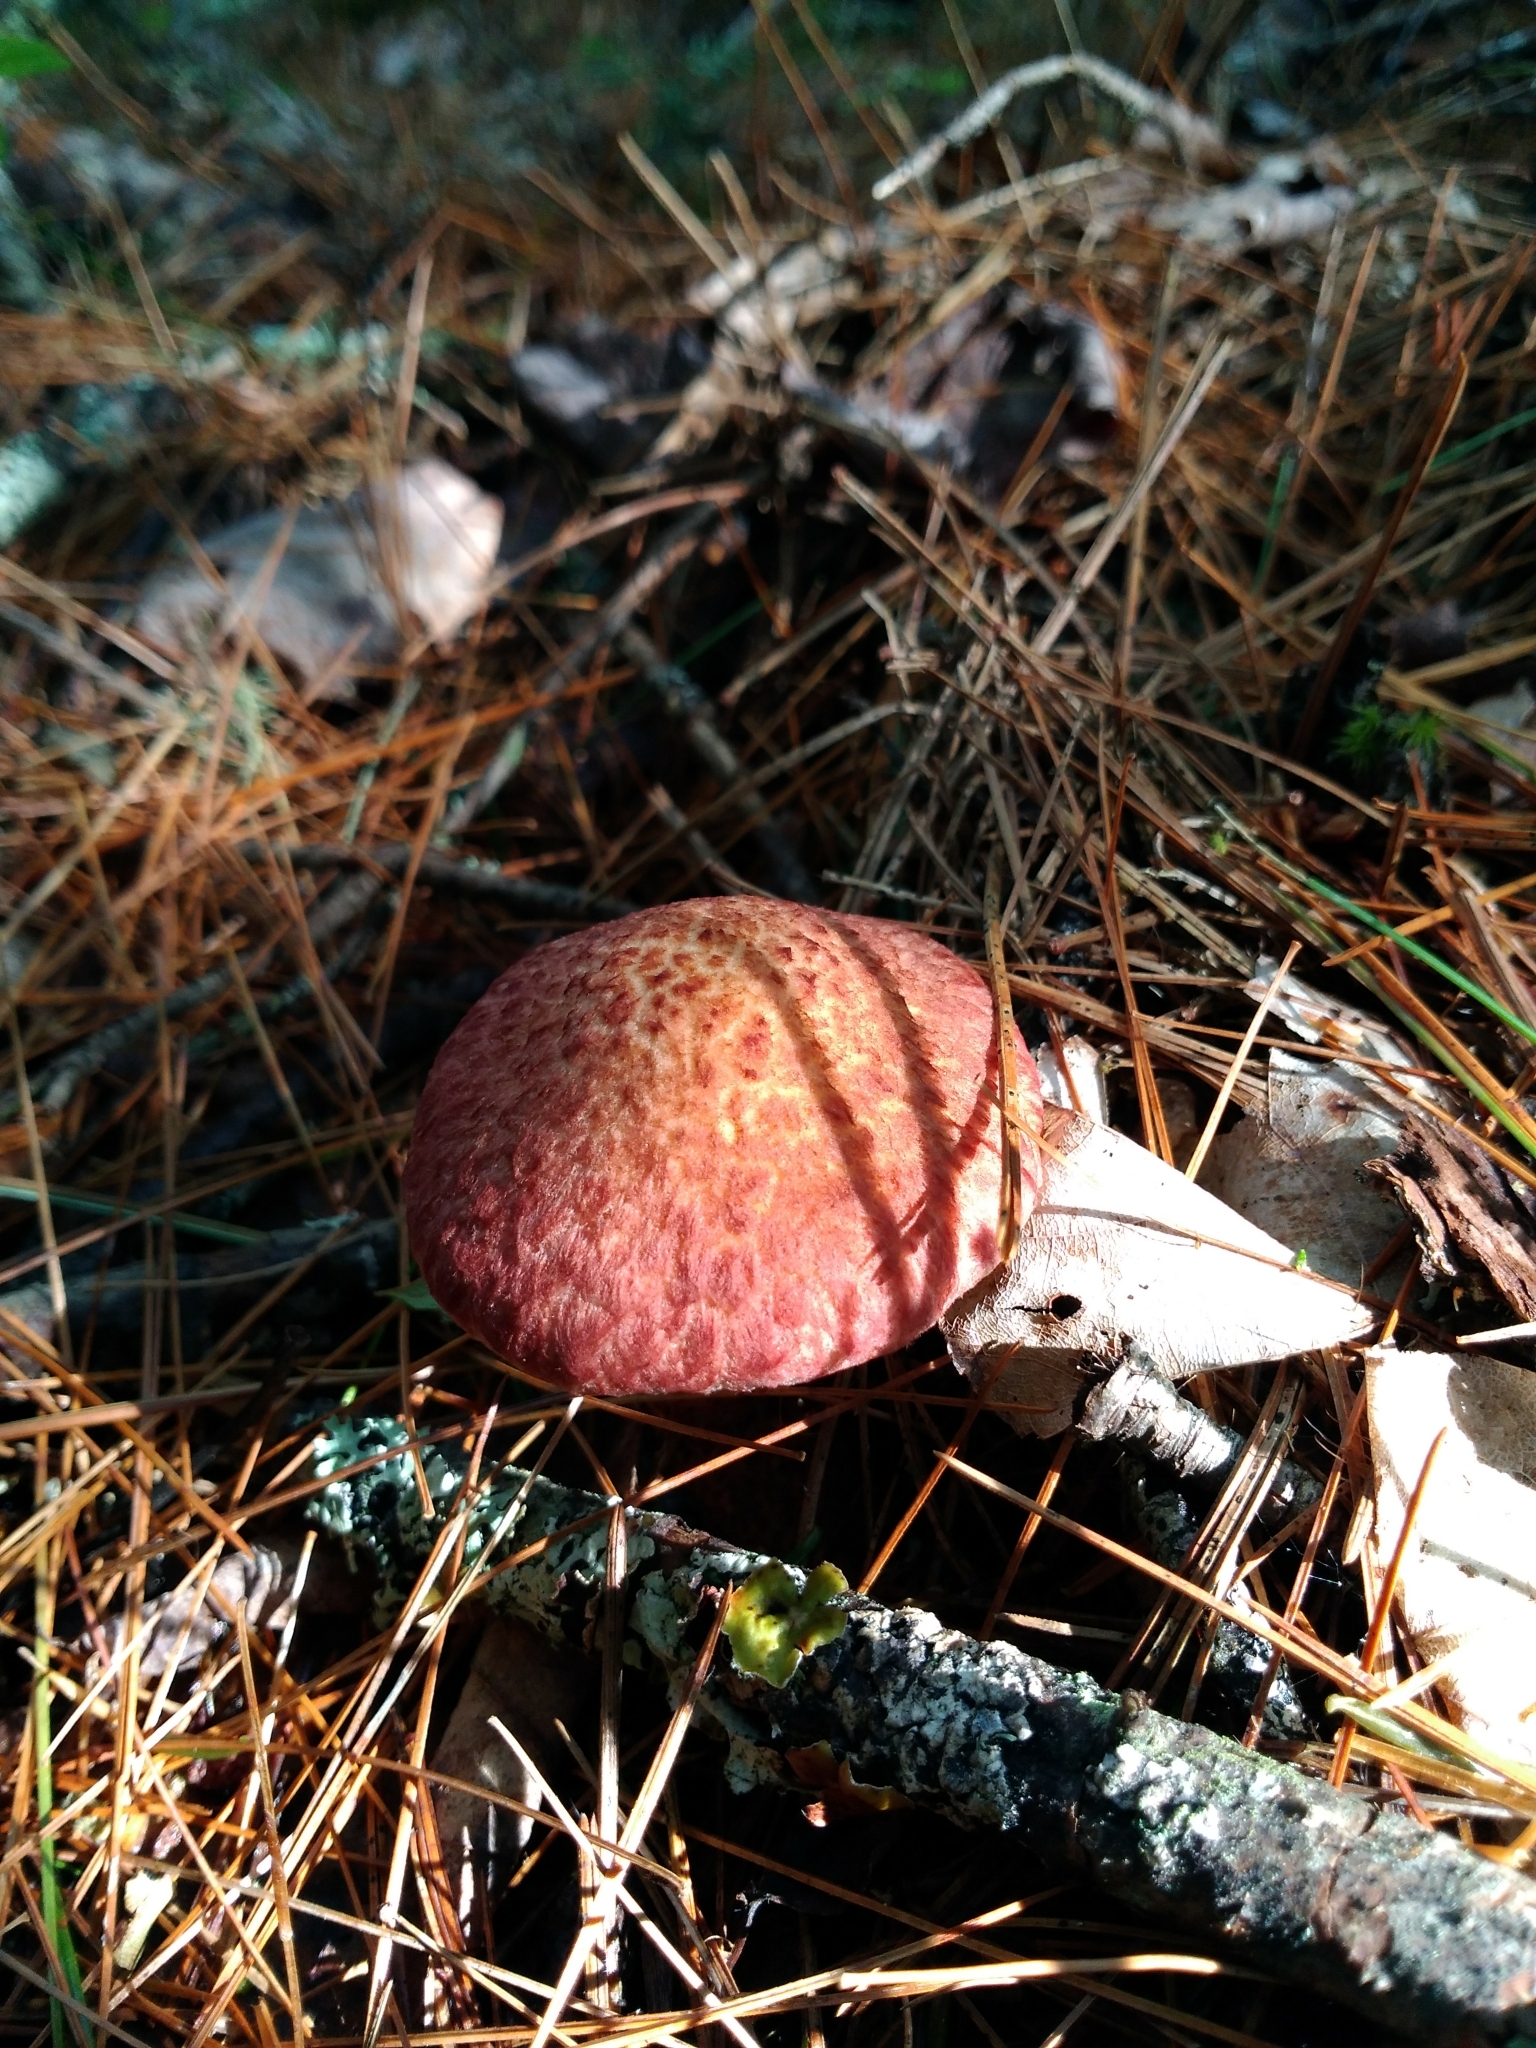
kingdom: Fungi
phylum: Basidiomycota
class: Agaricomycetes
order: Boletales
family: Suillaceae
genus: Suillus
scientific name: Suillus spraguei
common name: Painted suillus
